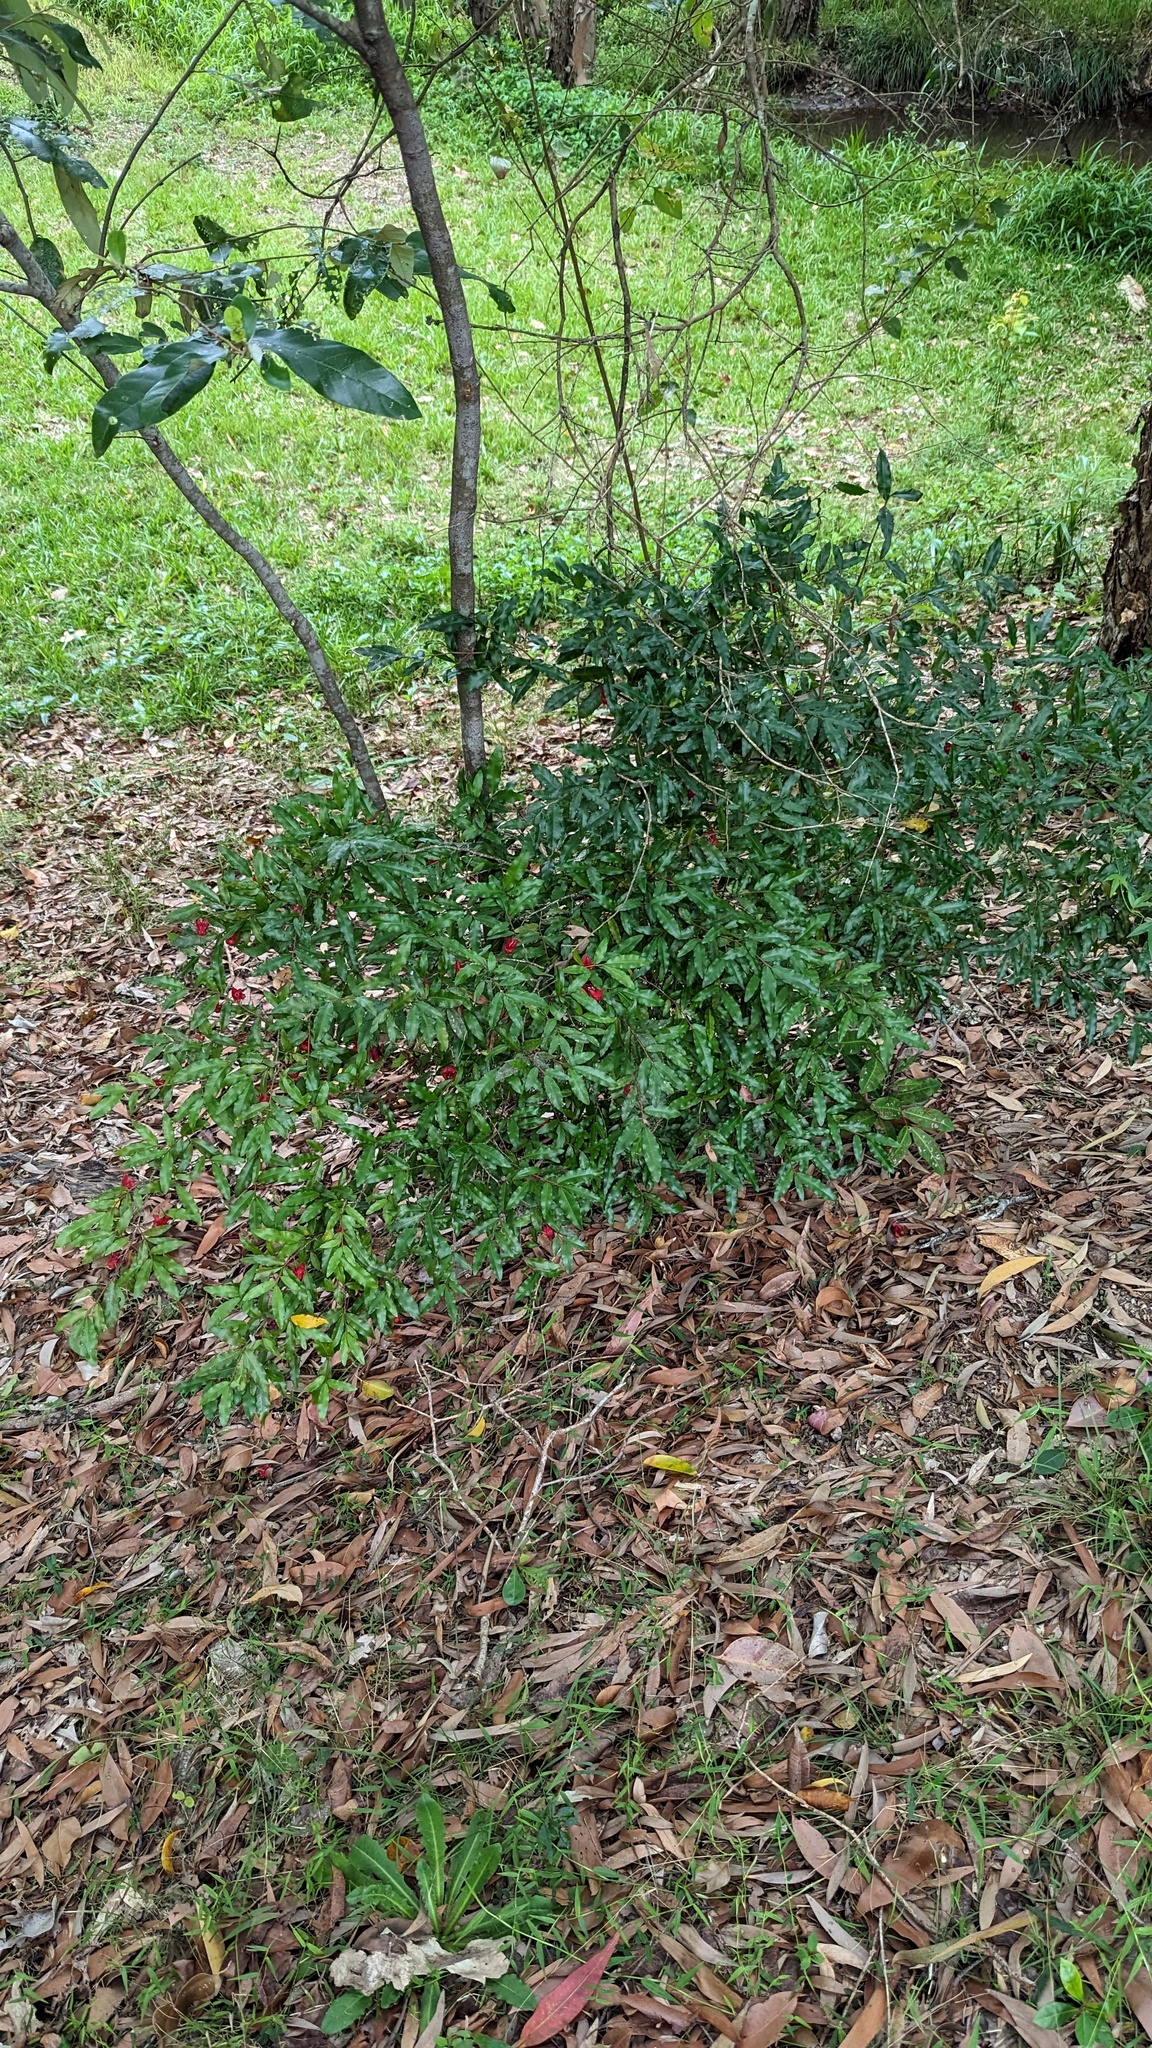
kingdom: Plantae
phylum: Tracheophyta
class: Magnoliopsida
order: Malpighiales
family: Ochnaceae
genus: Ochna
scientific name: Ochna serrulata
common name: Mickey mouse plant
